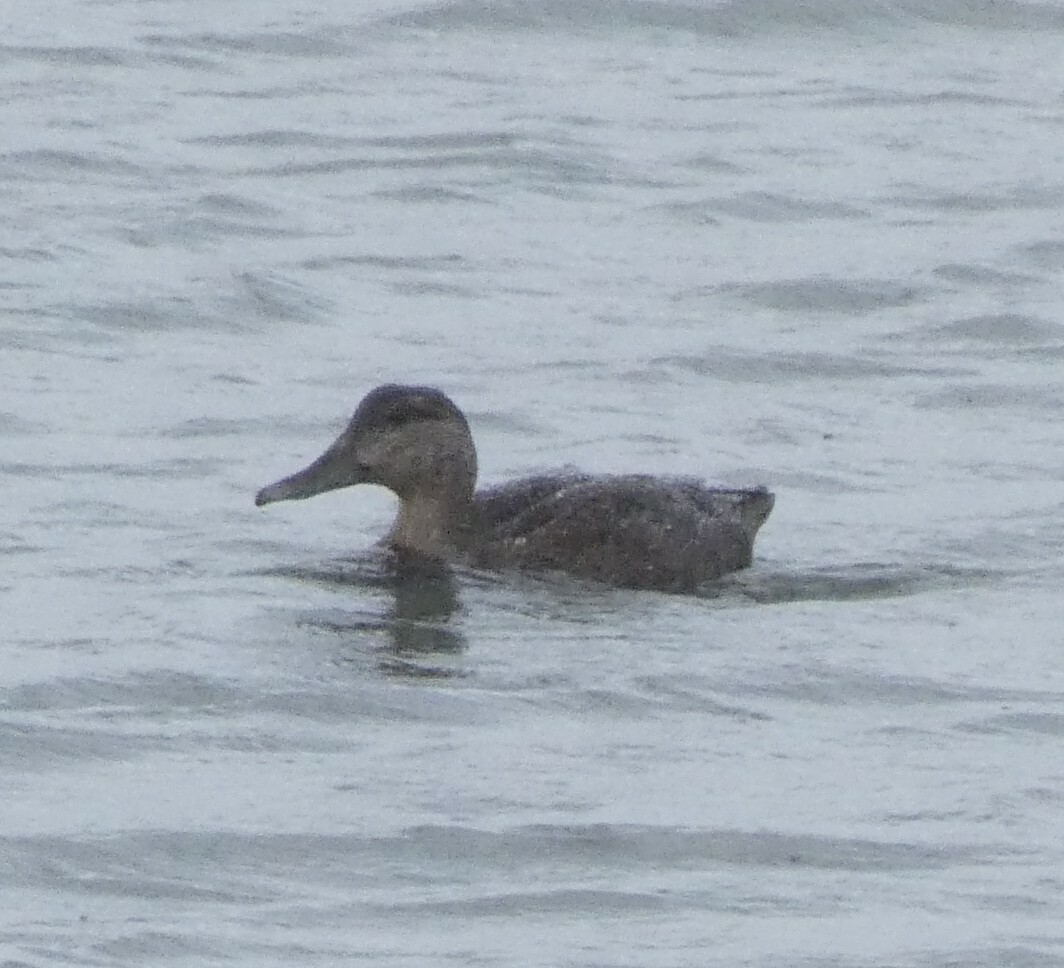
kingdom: Animalia
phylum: Chordata
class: Aves
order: Anseriformes
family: Anatidae
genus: Anas
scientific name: Anas rubripes
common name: American black duck
